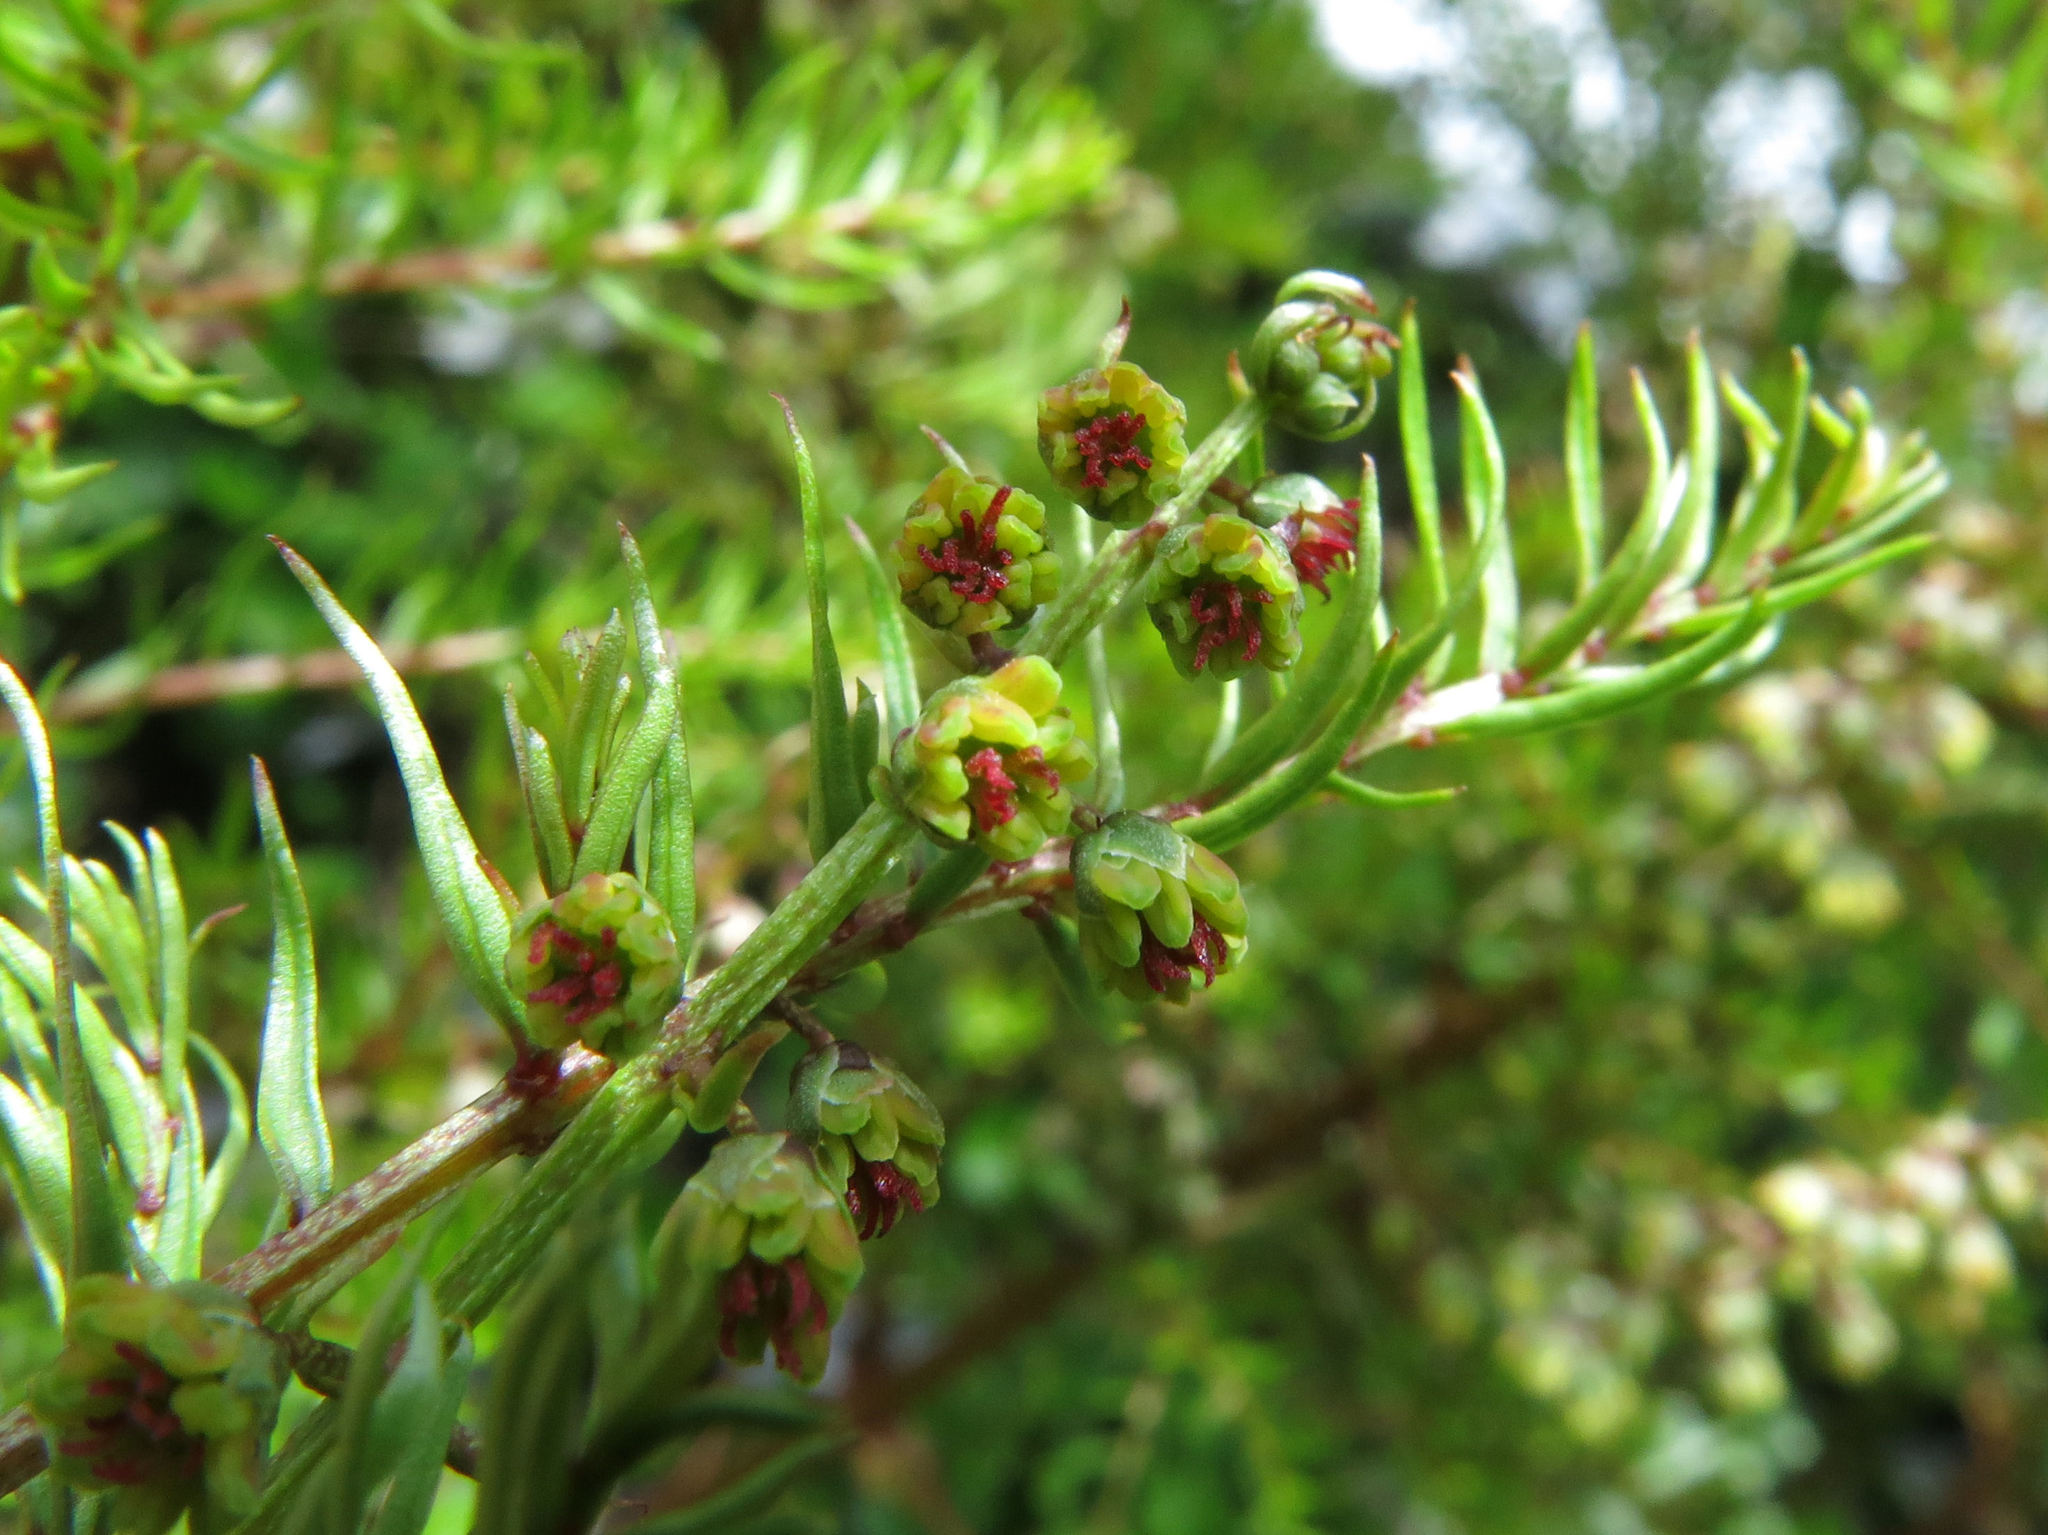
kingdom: Plantae
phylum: Tracheophyta
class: Magnoliopsida
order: Cucurbitales
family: Coriariaceae
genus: Coriaria
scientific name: Coriaria plumosa
